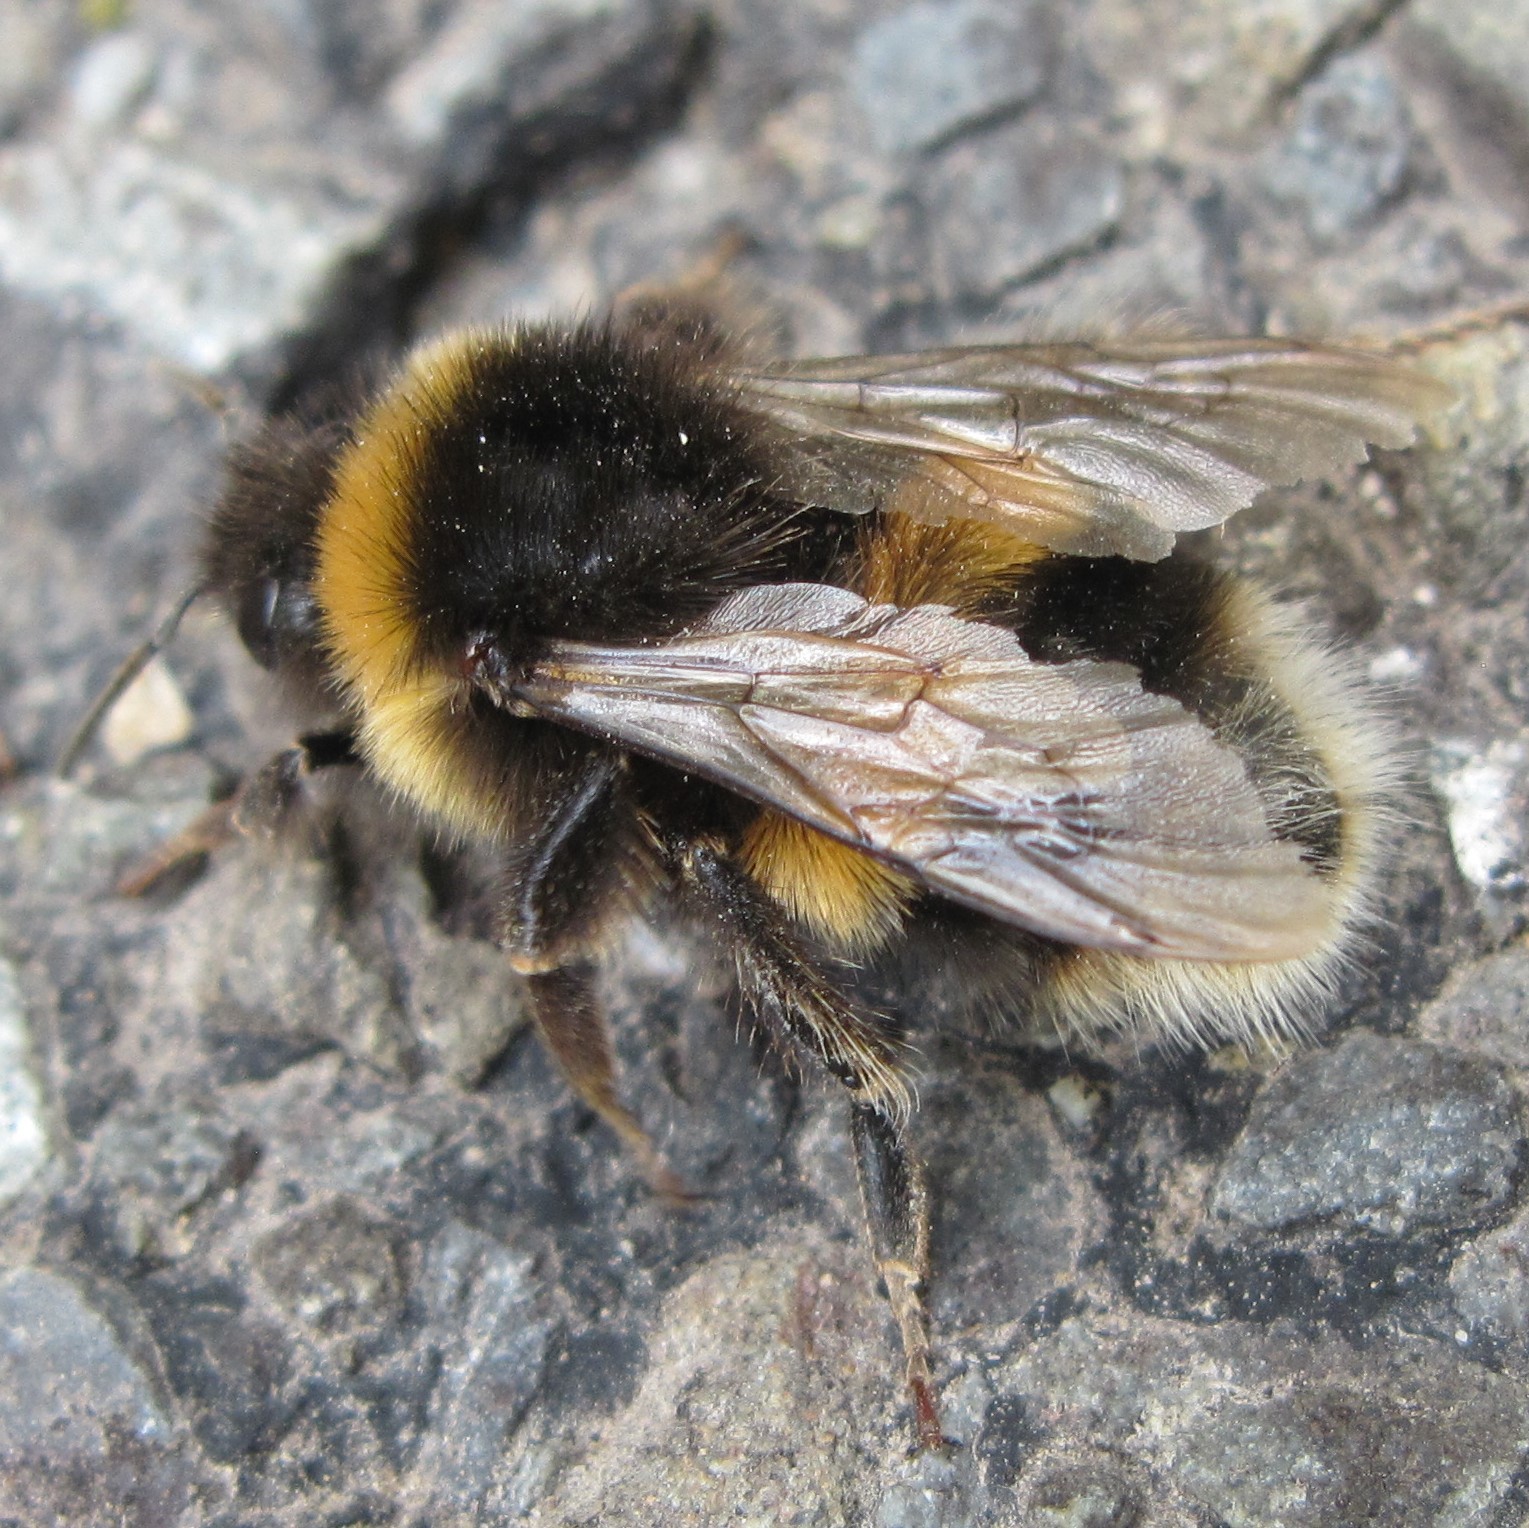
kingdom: Animalia
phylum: Arthropoda
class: Insecta
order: Hymenoptera
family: Apidae
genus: Bombus
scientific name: Bombus terrestris
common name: Buff-tailed bumblebee
